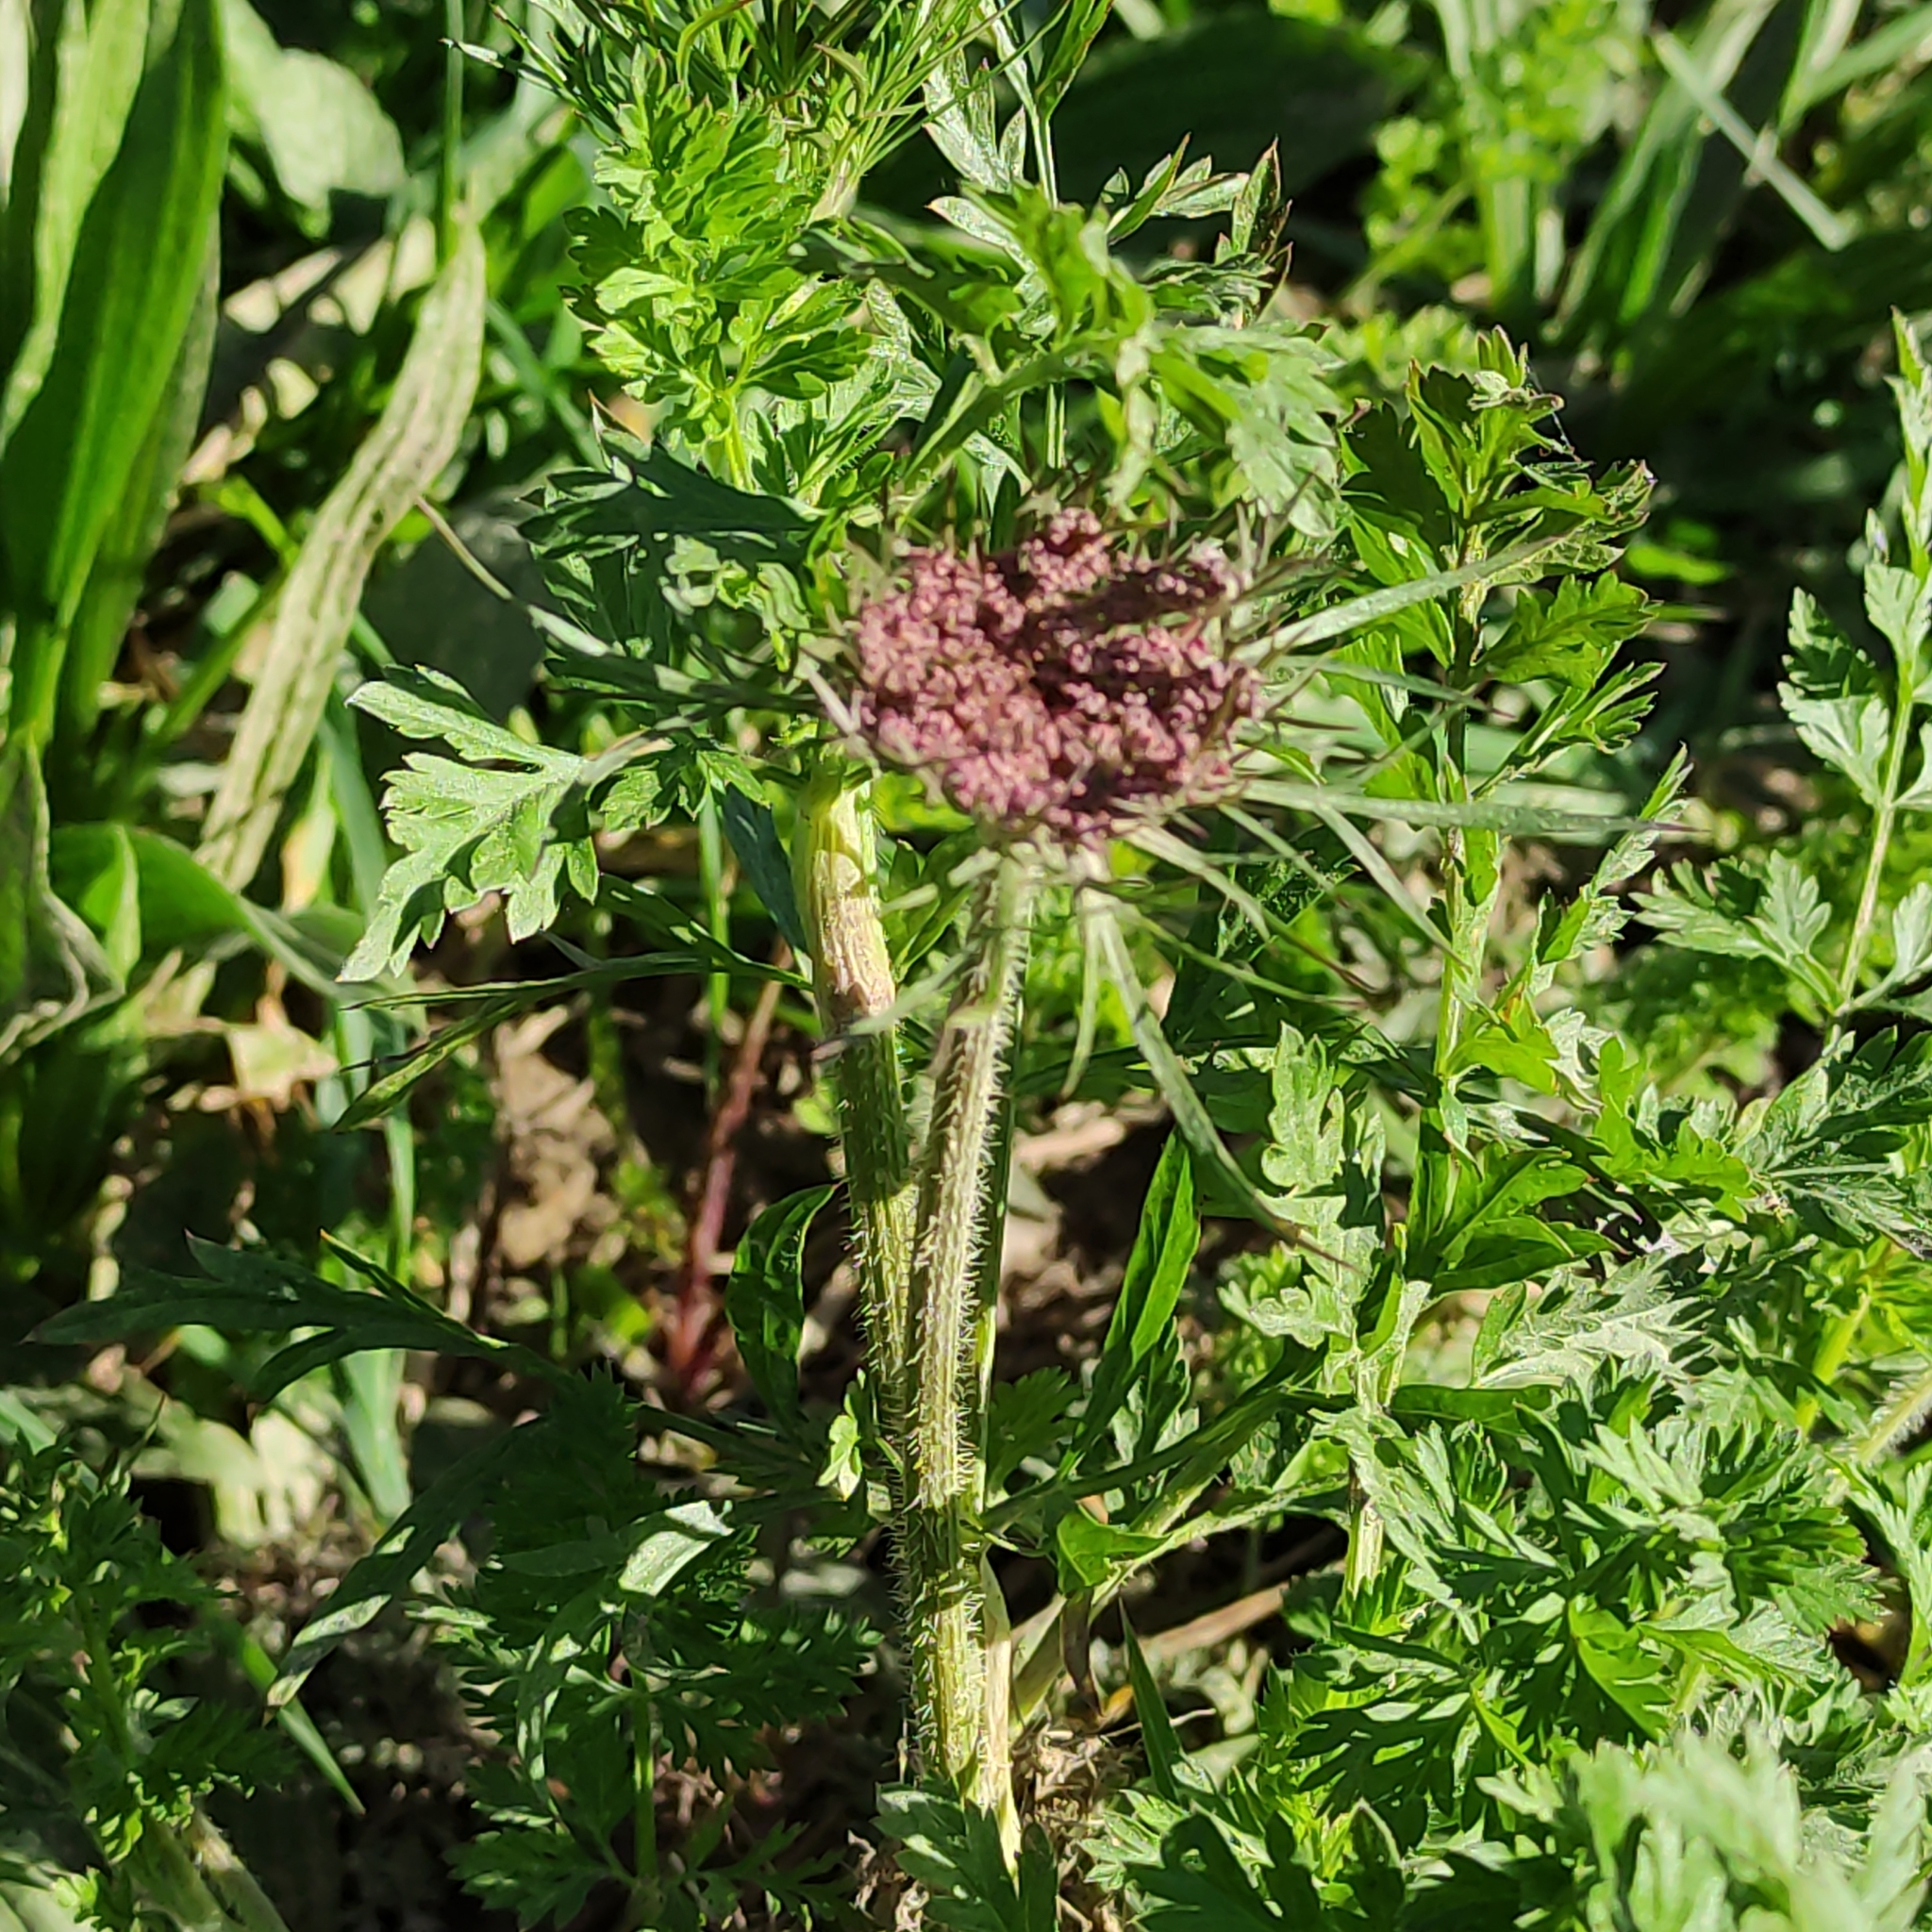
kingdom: Plantae
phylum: Tracheophyta
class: Magnoliopsida
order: Apiales
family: Apiaceae
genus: Daucus
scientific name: Daucus carota
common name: Wild carrot
